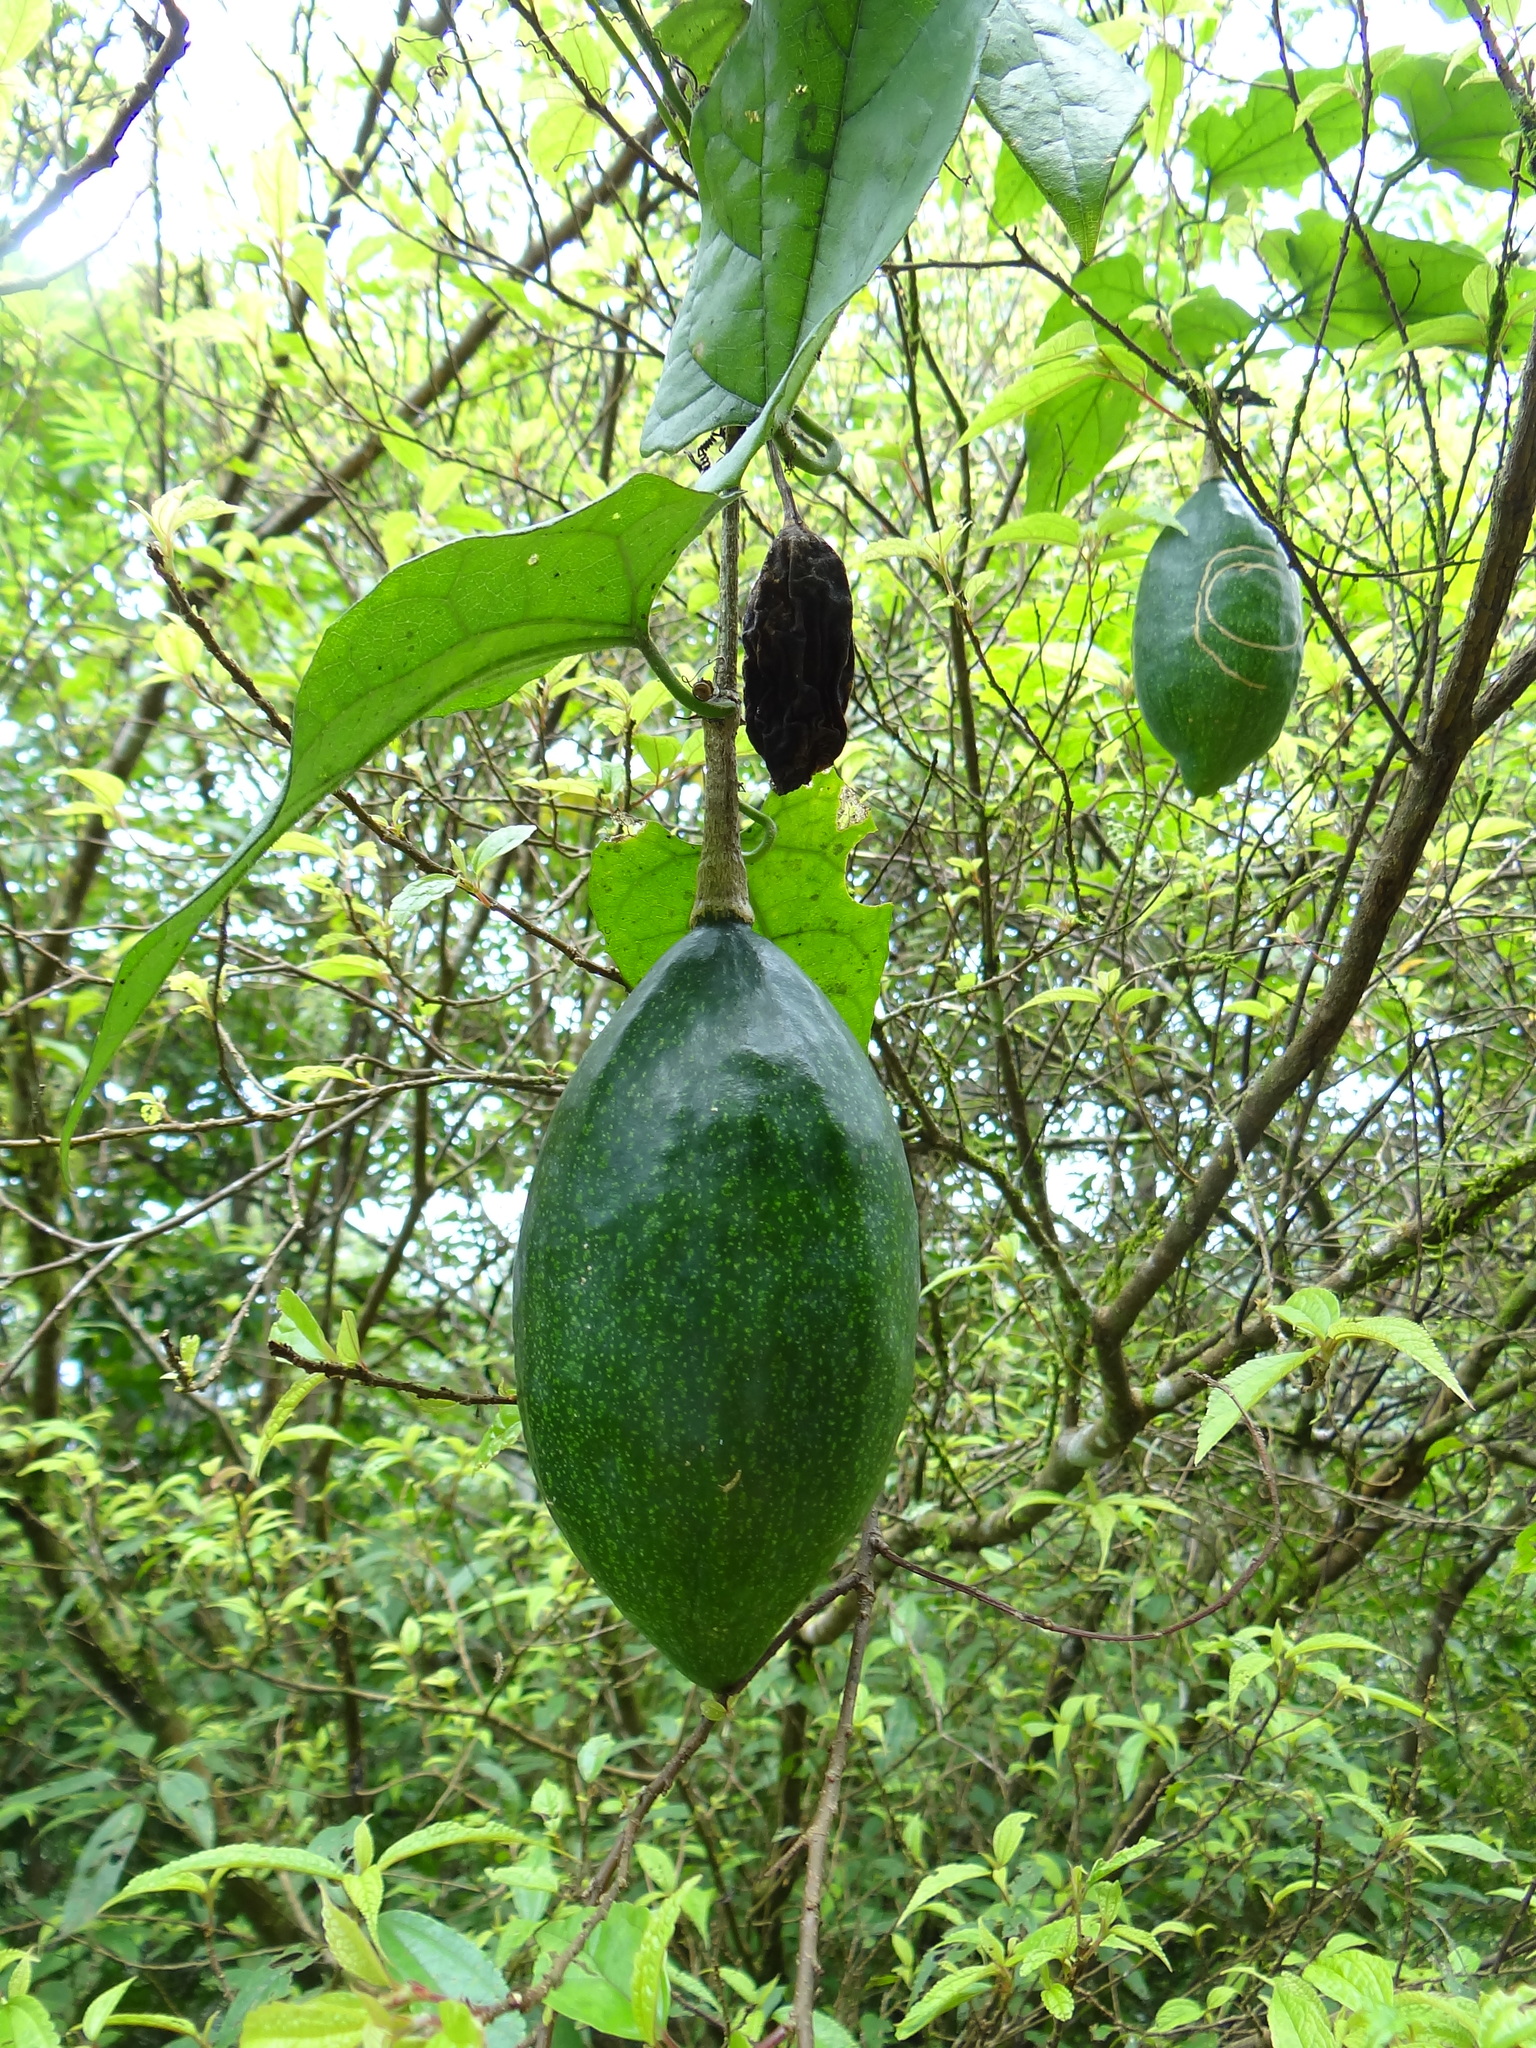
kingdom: Plantae
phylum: Tracheophyta
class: Magnoliopsida
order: Cucurbitales
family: Cucurbitaceae
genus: Trichosanthes
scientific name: Trichosanthes homophylla
